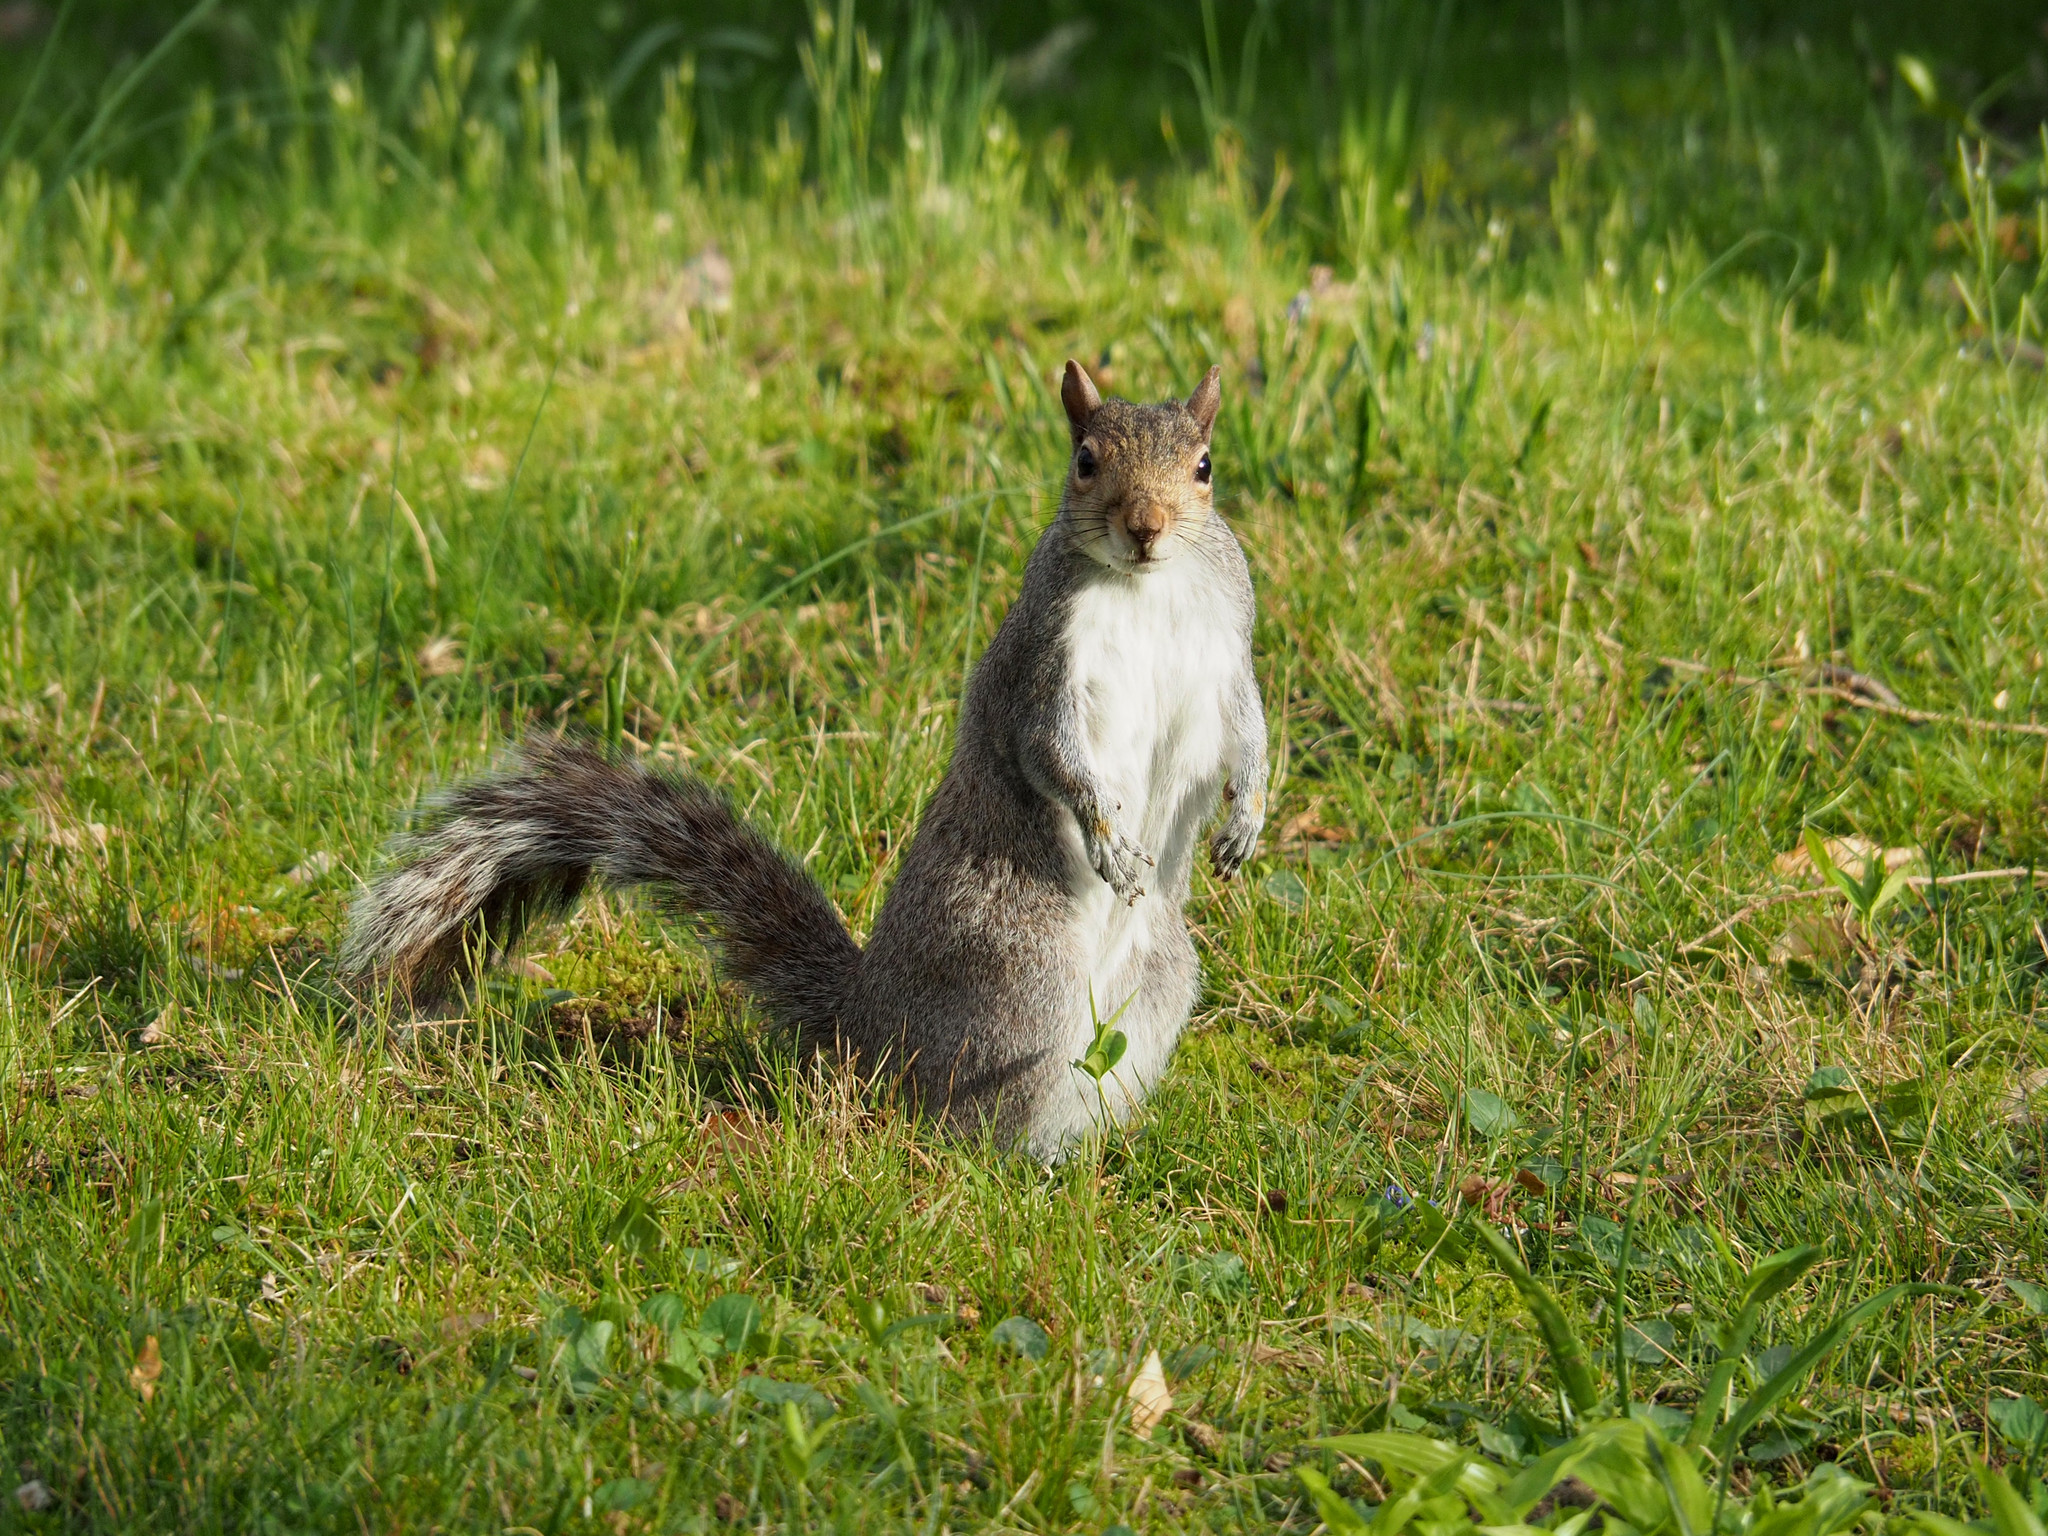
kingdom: Animalia
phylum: Chordata
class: Mammalia
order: Rodentia
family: Sciuridae
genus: Sciurus
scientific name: Sciurus carolinensis
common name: Eastern gray squirrel
